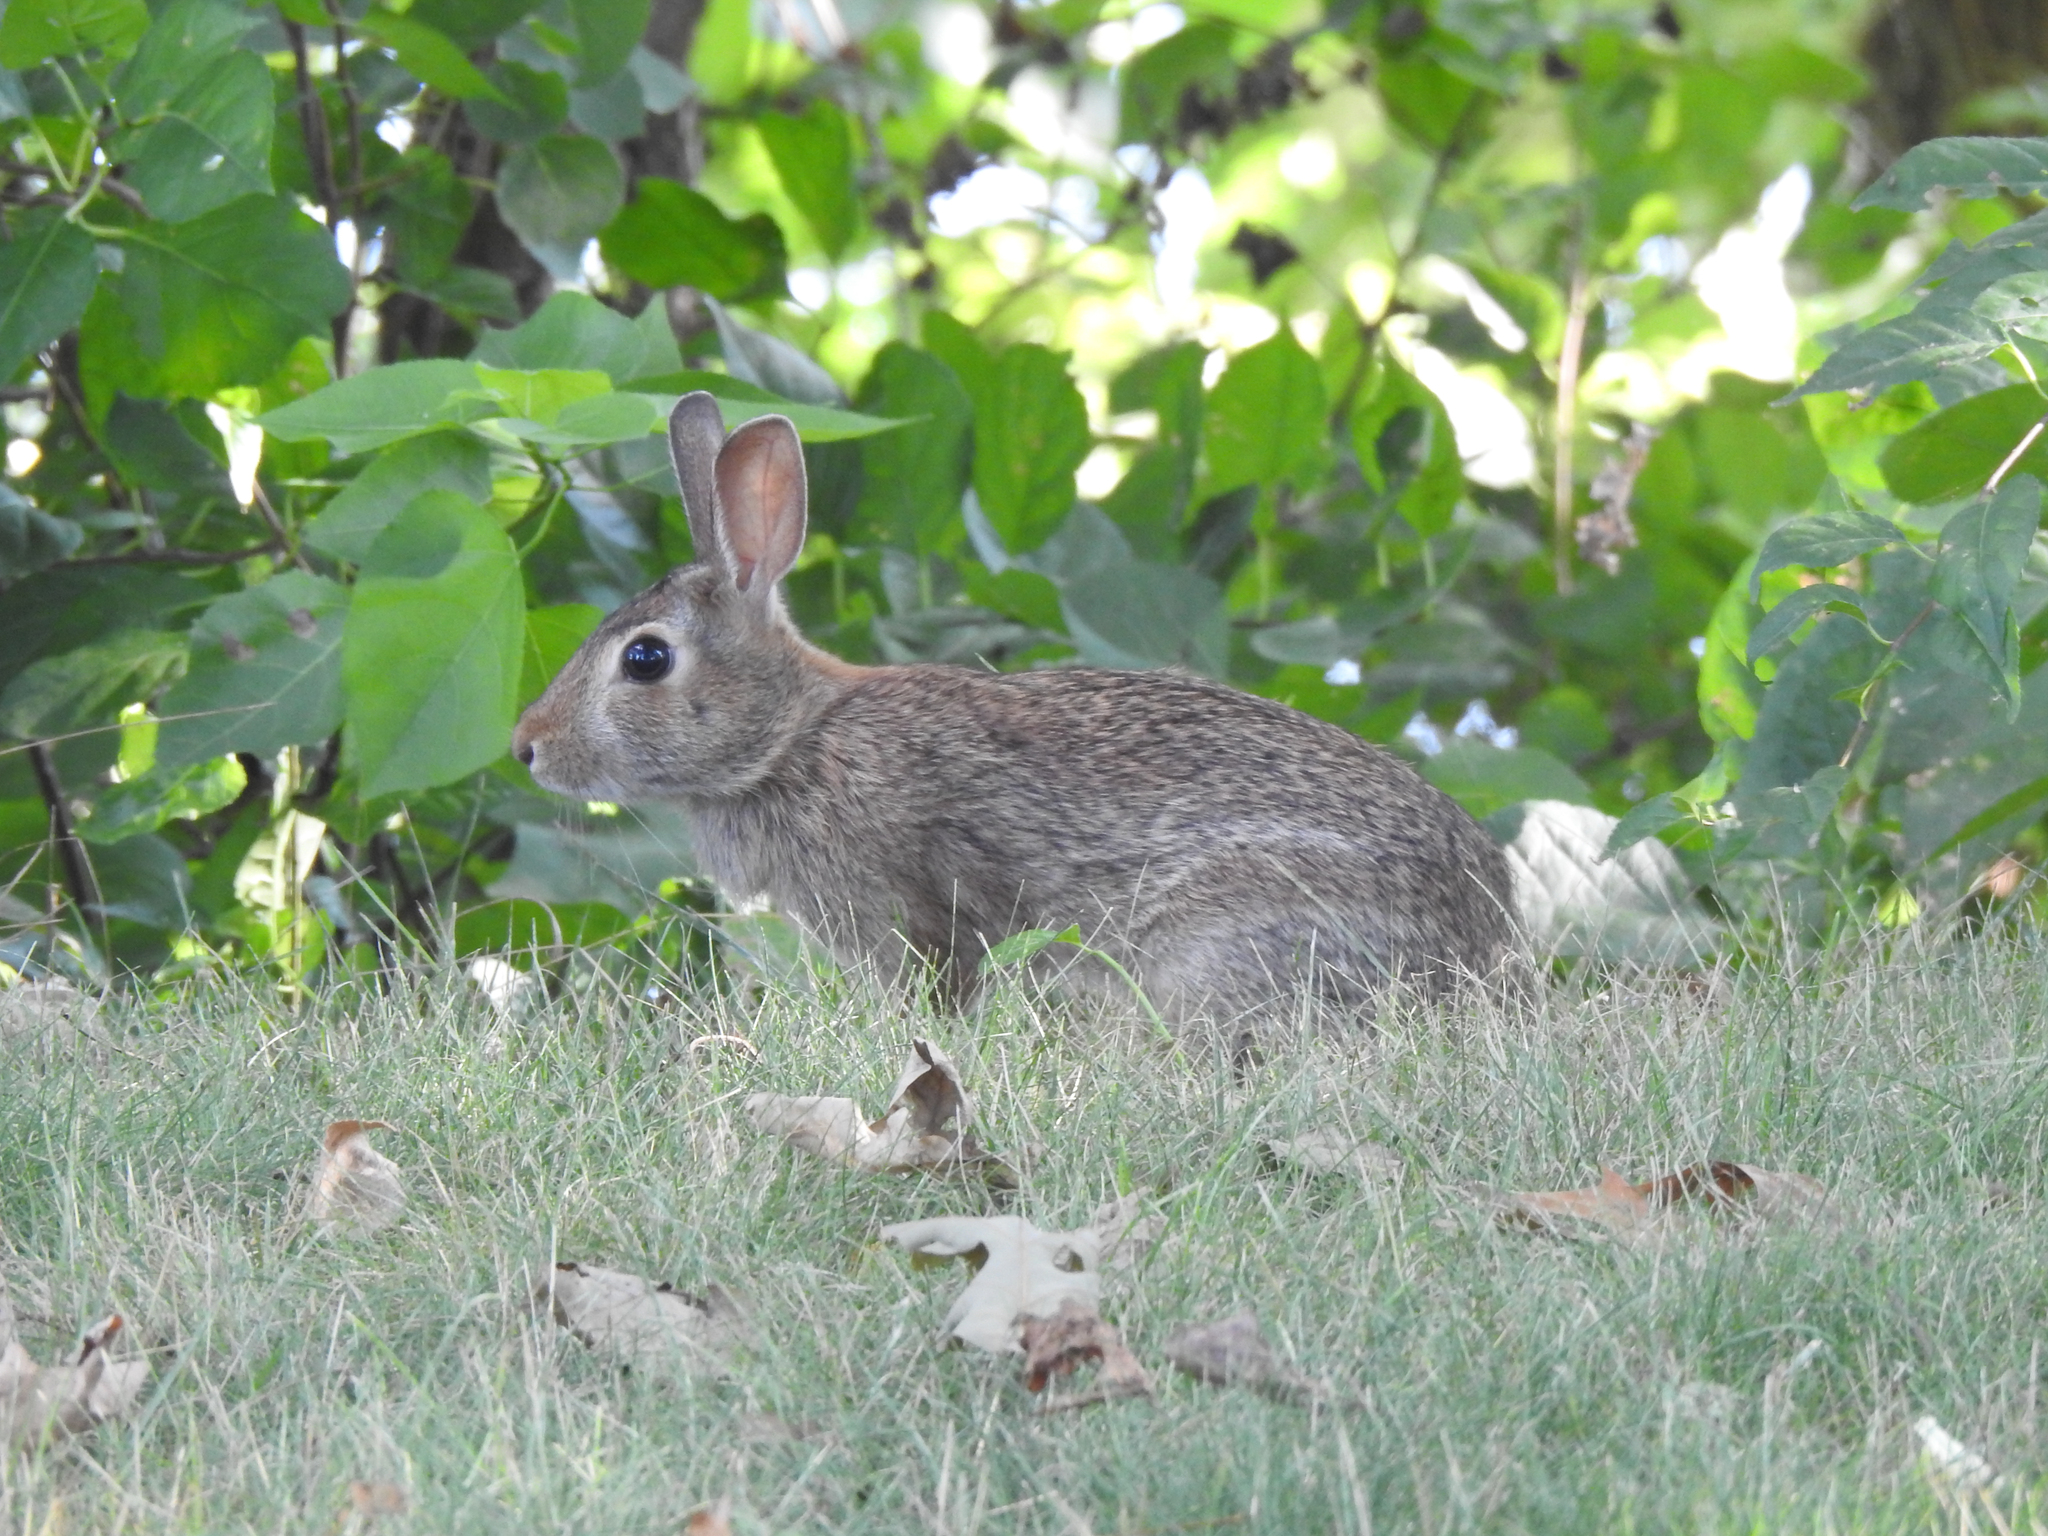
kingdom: Animalia
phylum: Chordata
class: Mammalia
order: Lagomorpha
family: Leporidae
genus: Sylvilagus
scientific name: Sylvilagus floridanus
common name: Eastern cottontail
